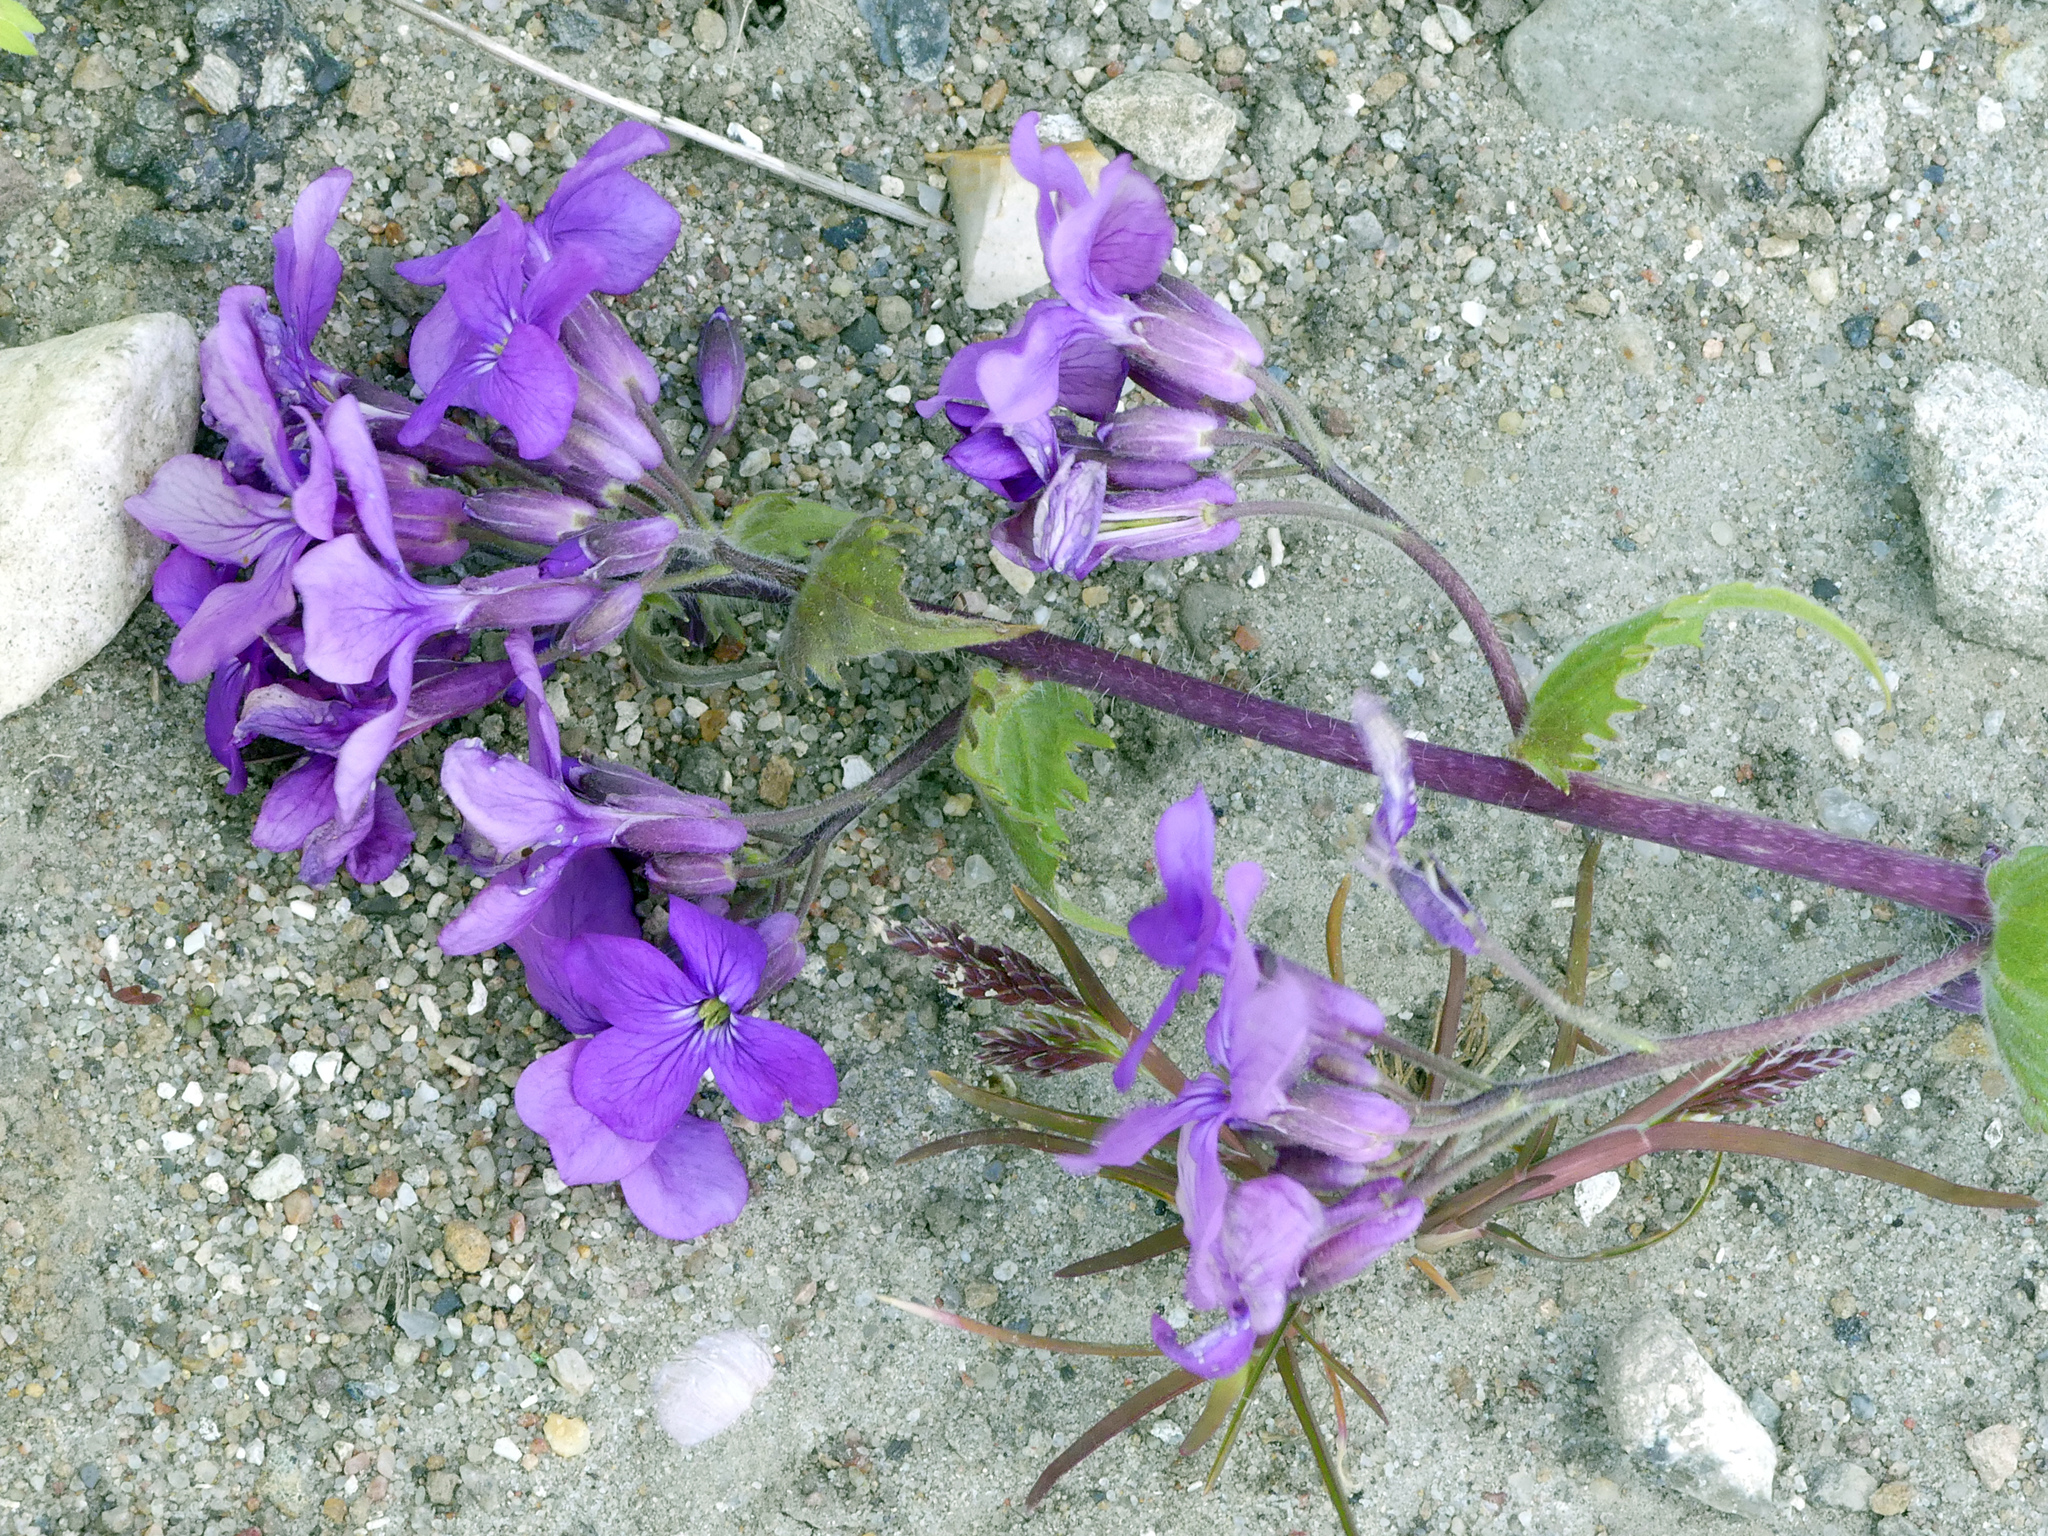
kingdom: Plantae
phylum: Tracheophyta
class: Magnoliopsida
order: Brassicales
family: Brassicaceae
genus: Lunaria
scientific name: Lunaria annua
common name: Honesty
